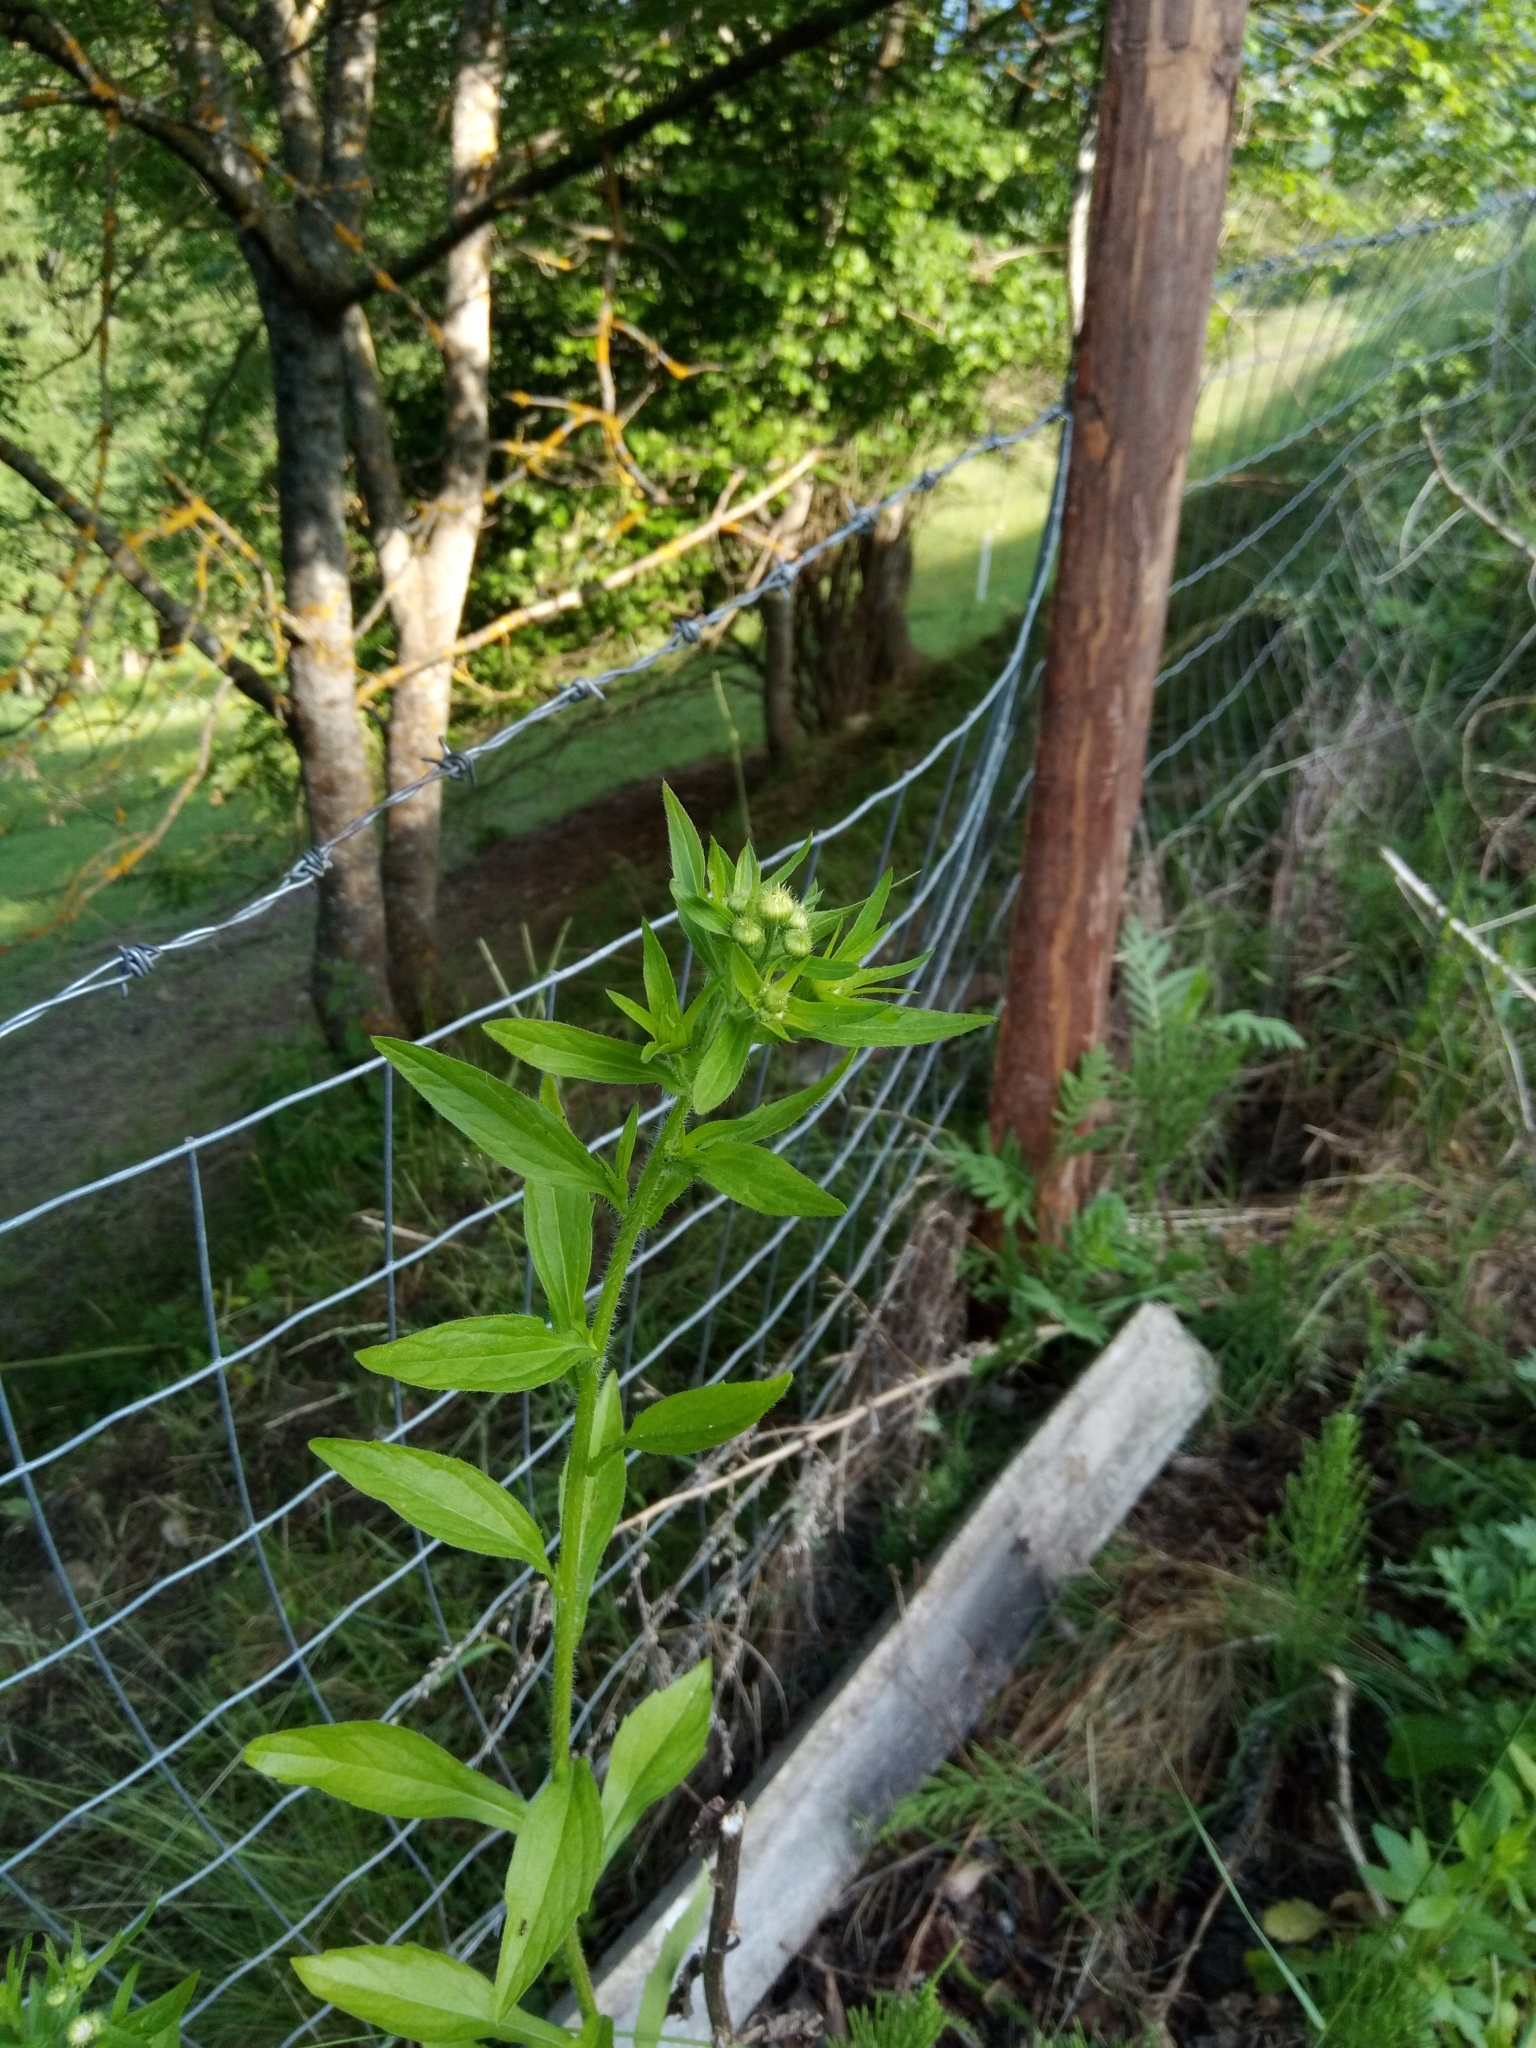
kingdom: Plantae
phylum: Tracheophyta
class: Magnoliopsida
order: Asterales
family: Asteraceae
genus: Erigeron
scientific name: Erigeron annuus
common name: Tall fleabane
